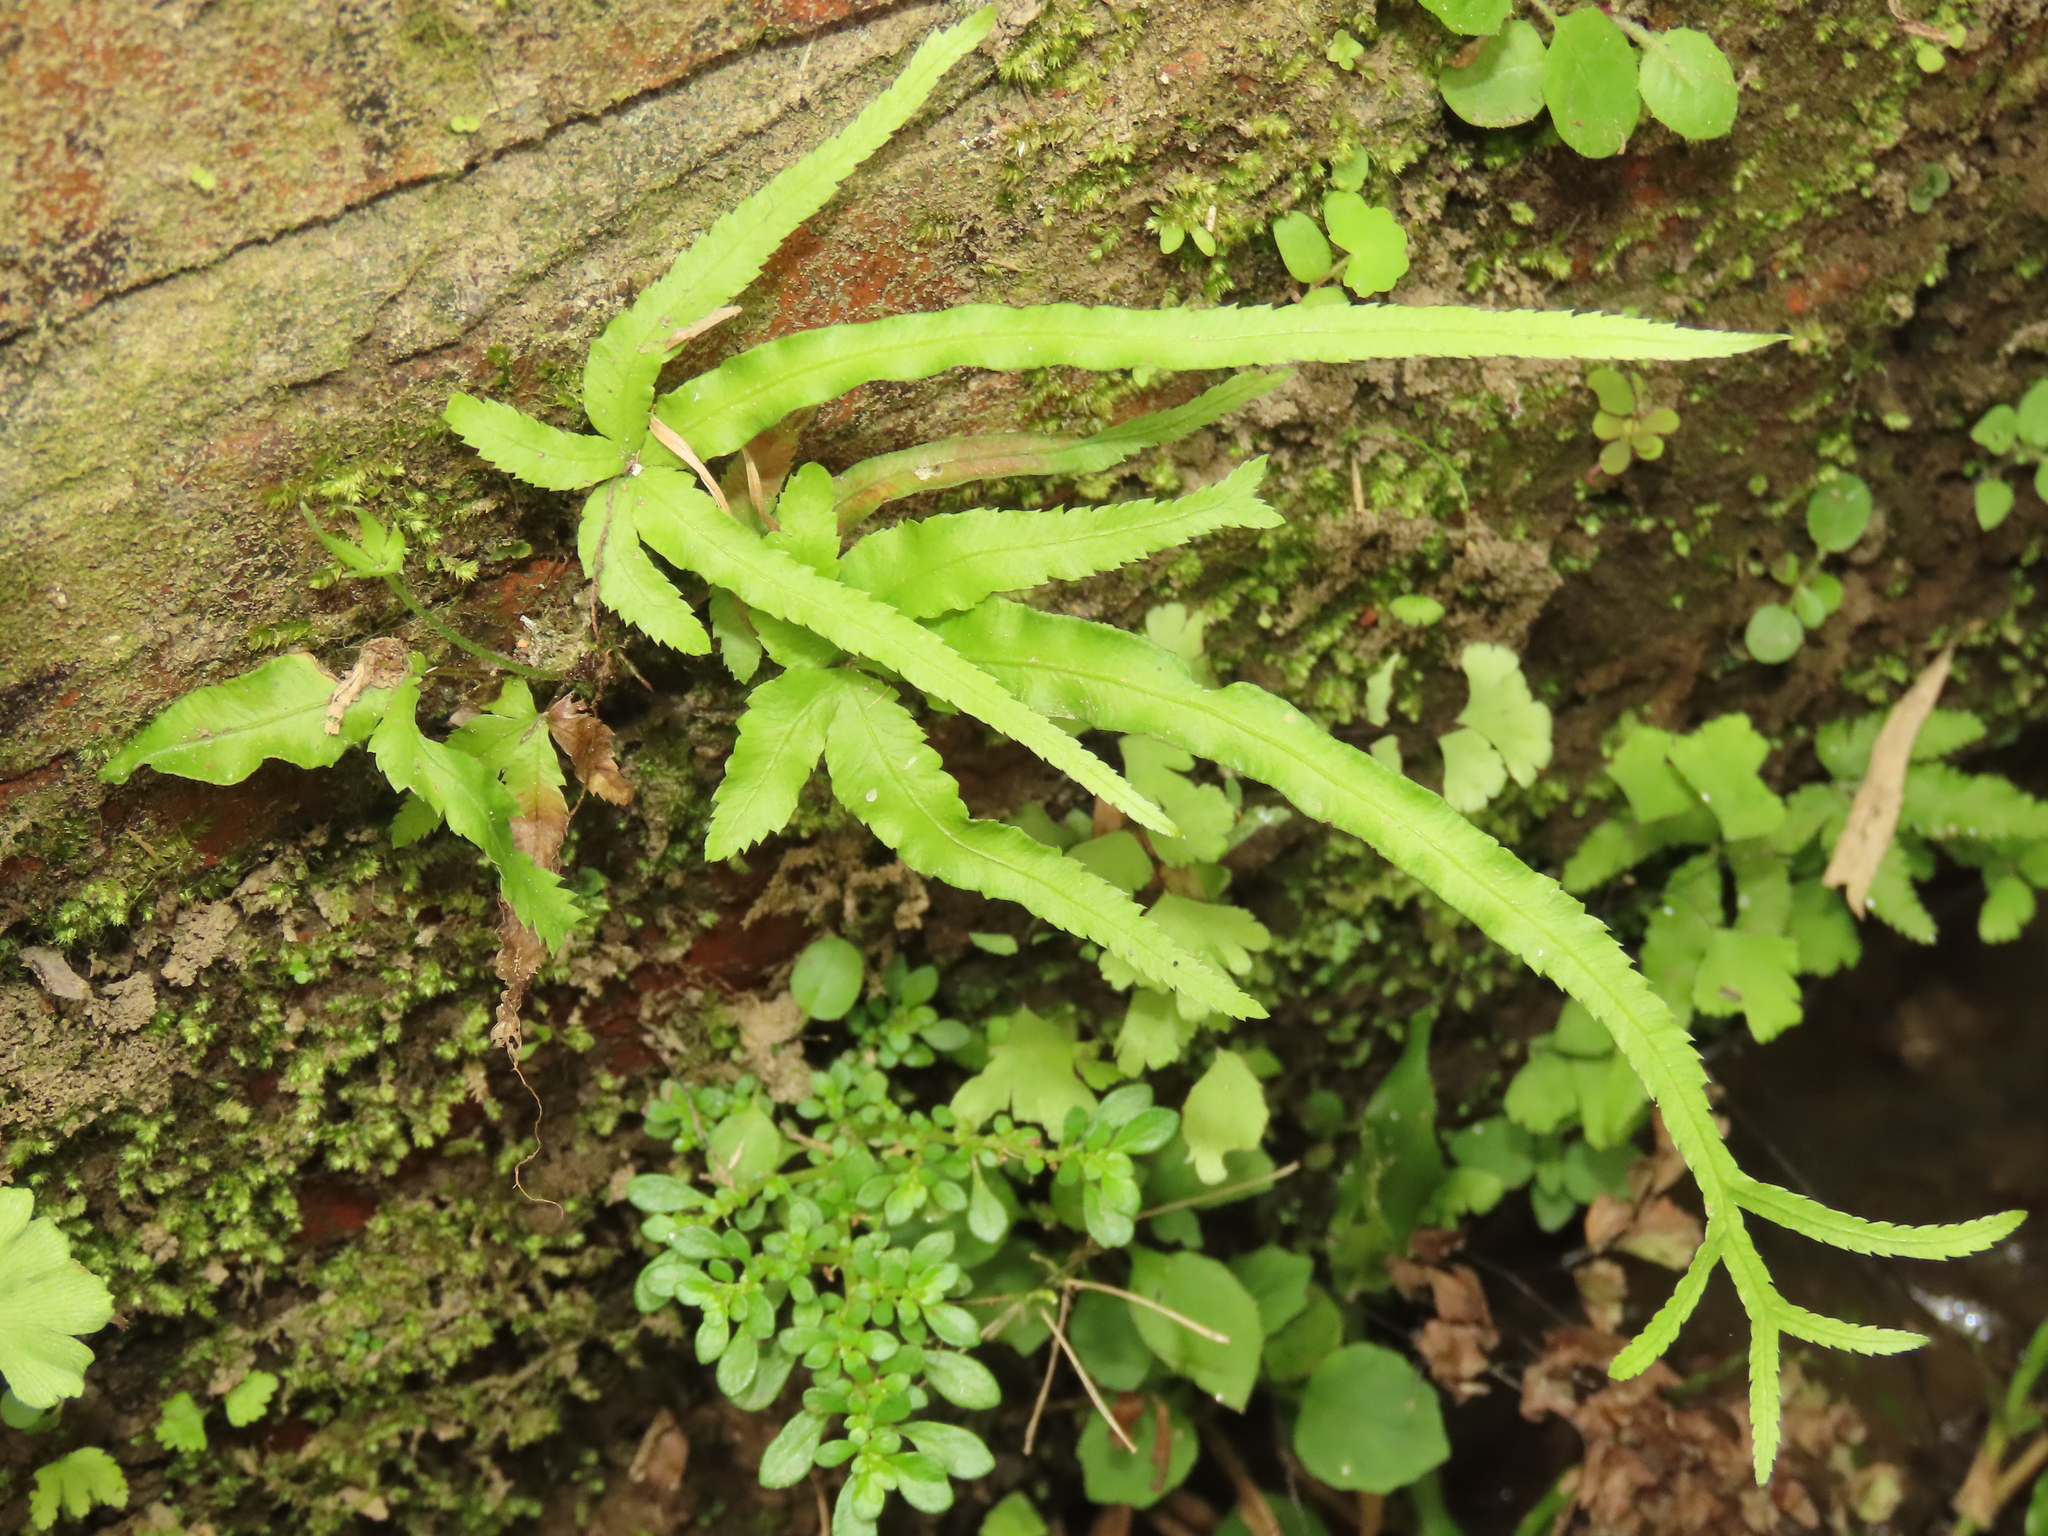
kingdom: Plantae
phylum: Tracheophyta
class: Polypodiopsida
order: Polypodiales
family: Pteridaceae
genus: Pteris
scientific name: Pteris multifida
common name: Spider brake
